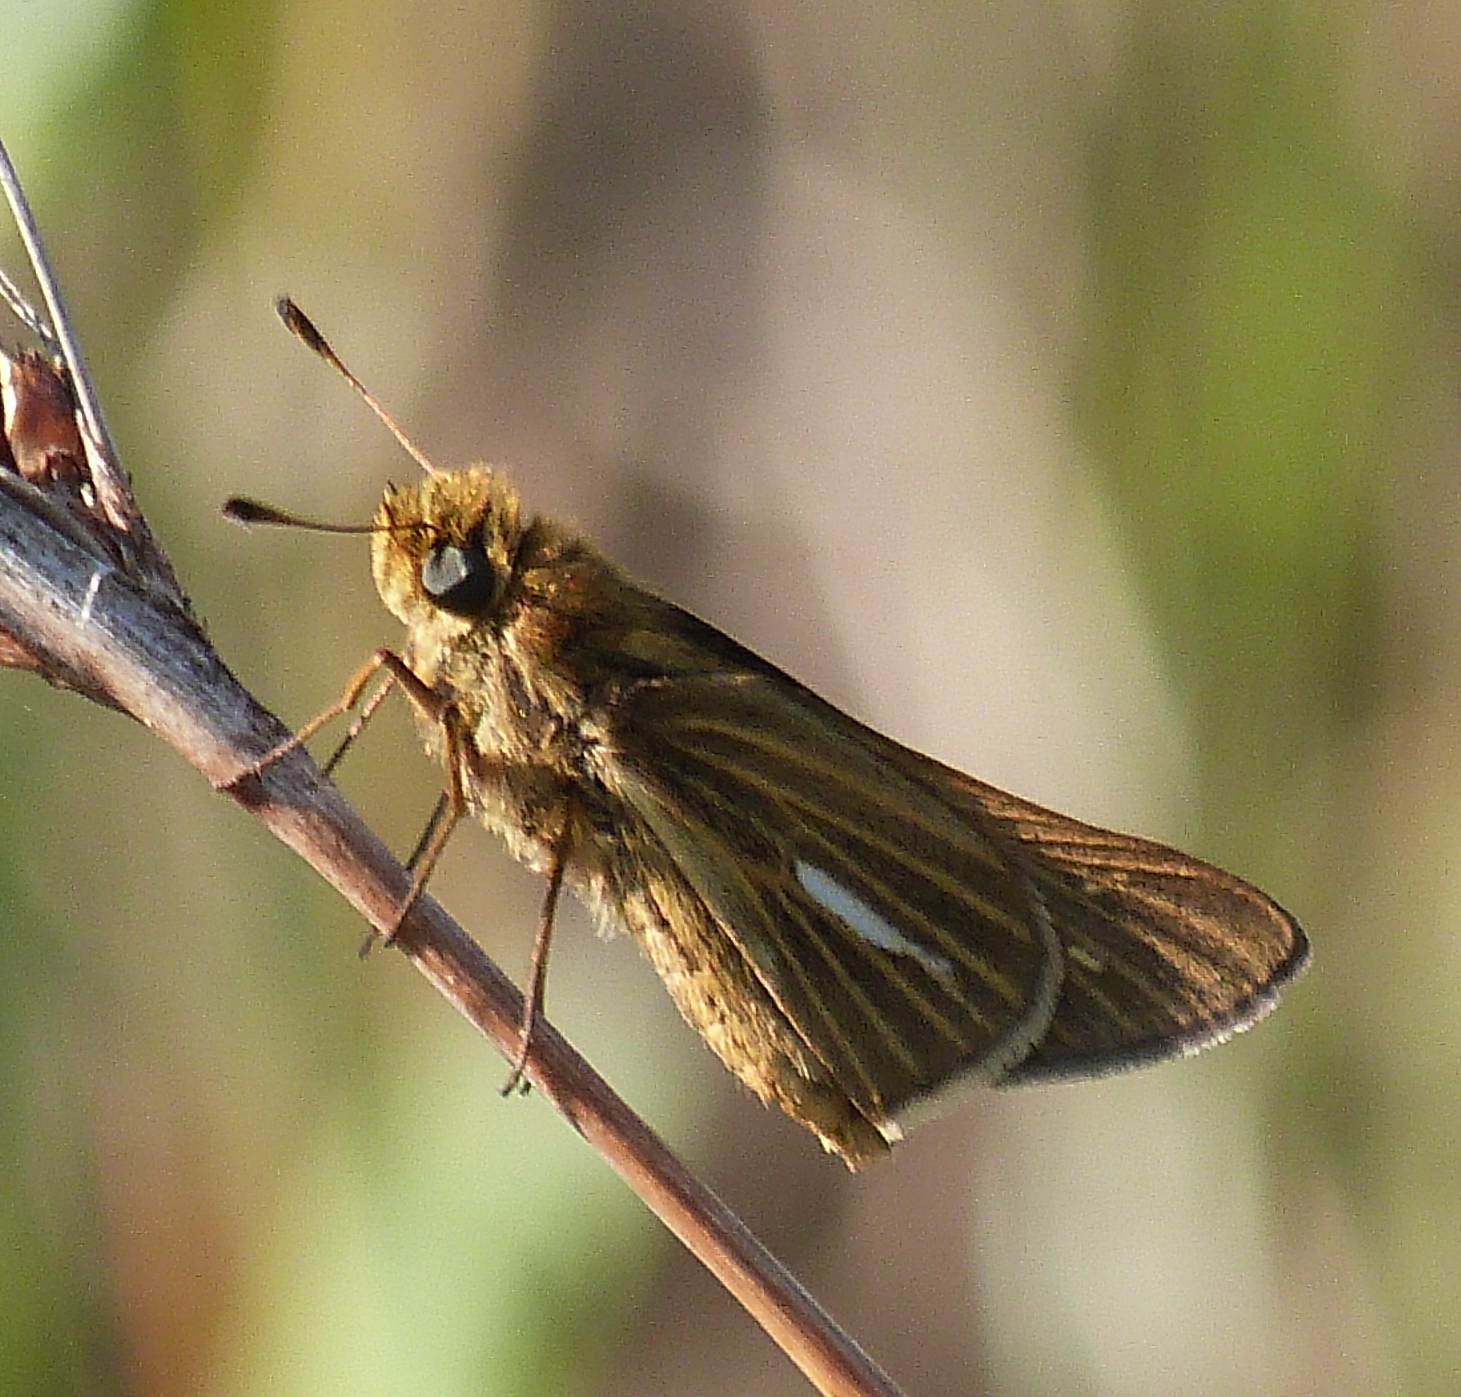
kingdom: Animalia
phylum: Arthropoda
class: Insecta
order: Lepidoptera
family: Hesperiidae
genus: Panoquina
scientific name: Panoquina panoquin
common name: Salt marsh skipper
